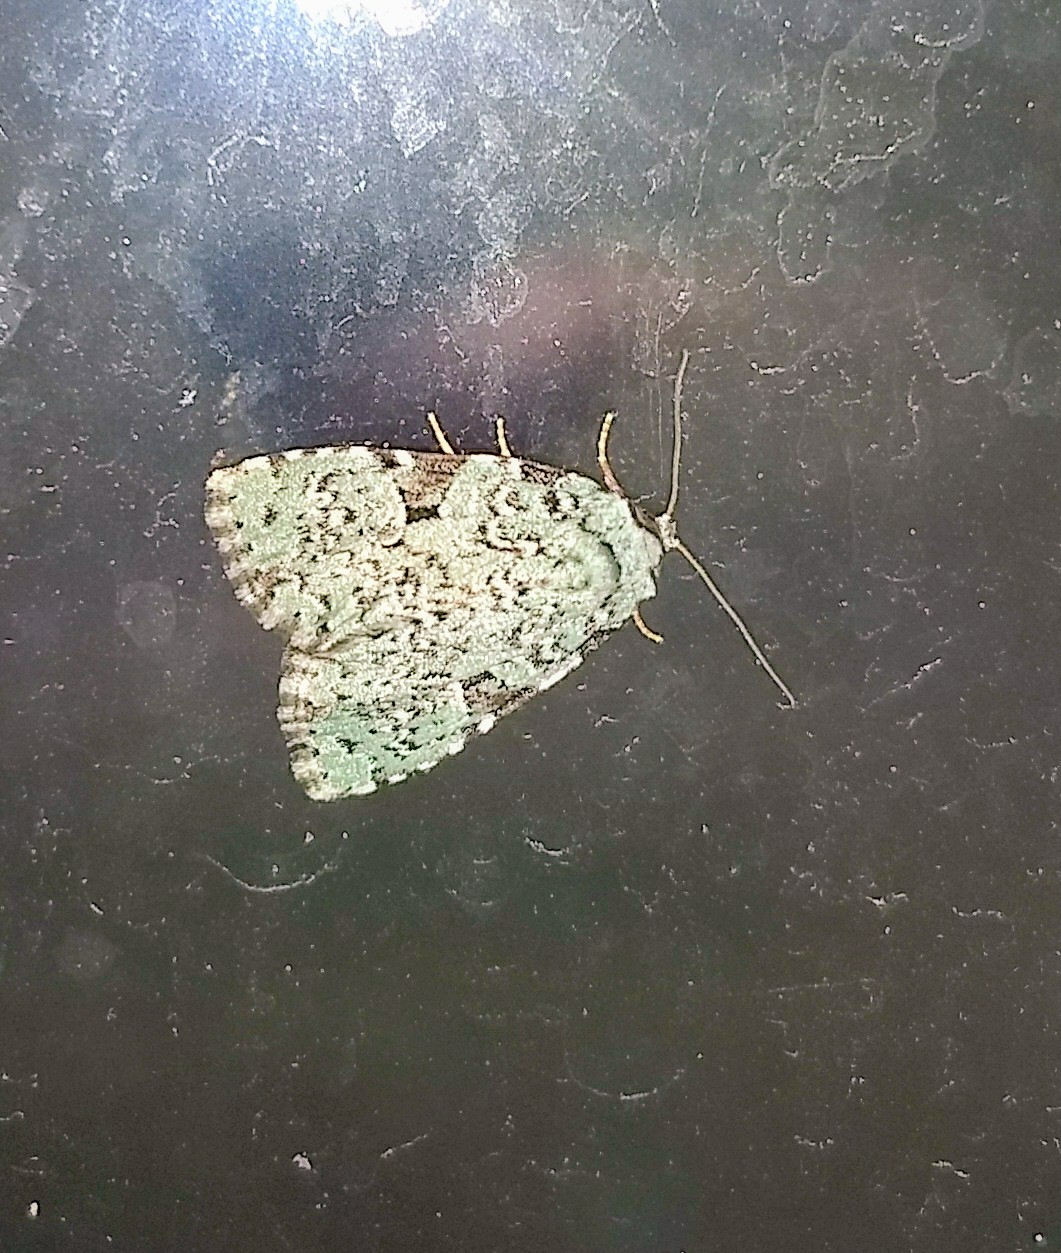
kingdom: Animalia
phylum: Arthropoda
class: Insecta
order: Lepidoptera
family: Noctuidae
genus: Leuconycta
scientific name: Leuconycta diphteroides
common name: Green leuconycta moth
